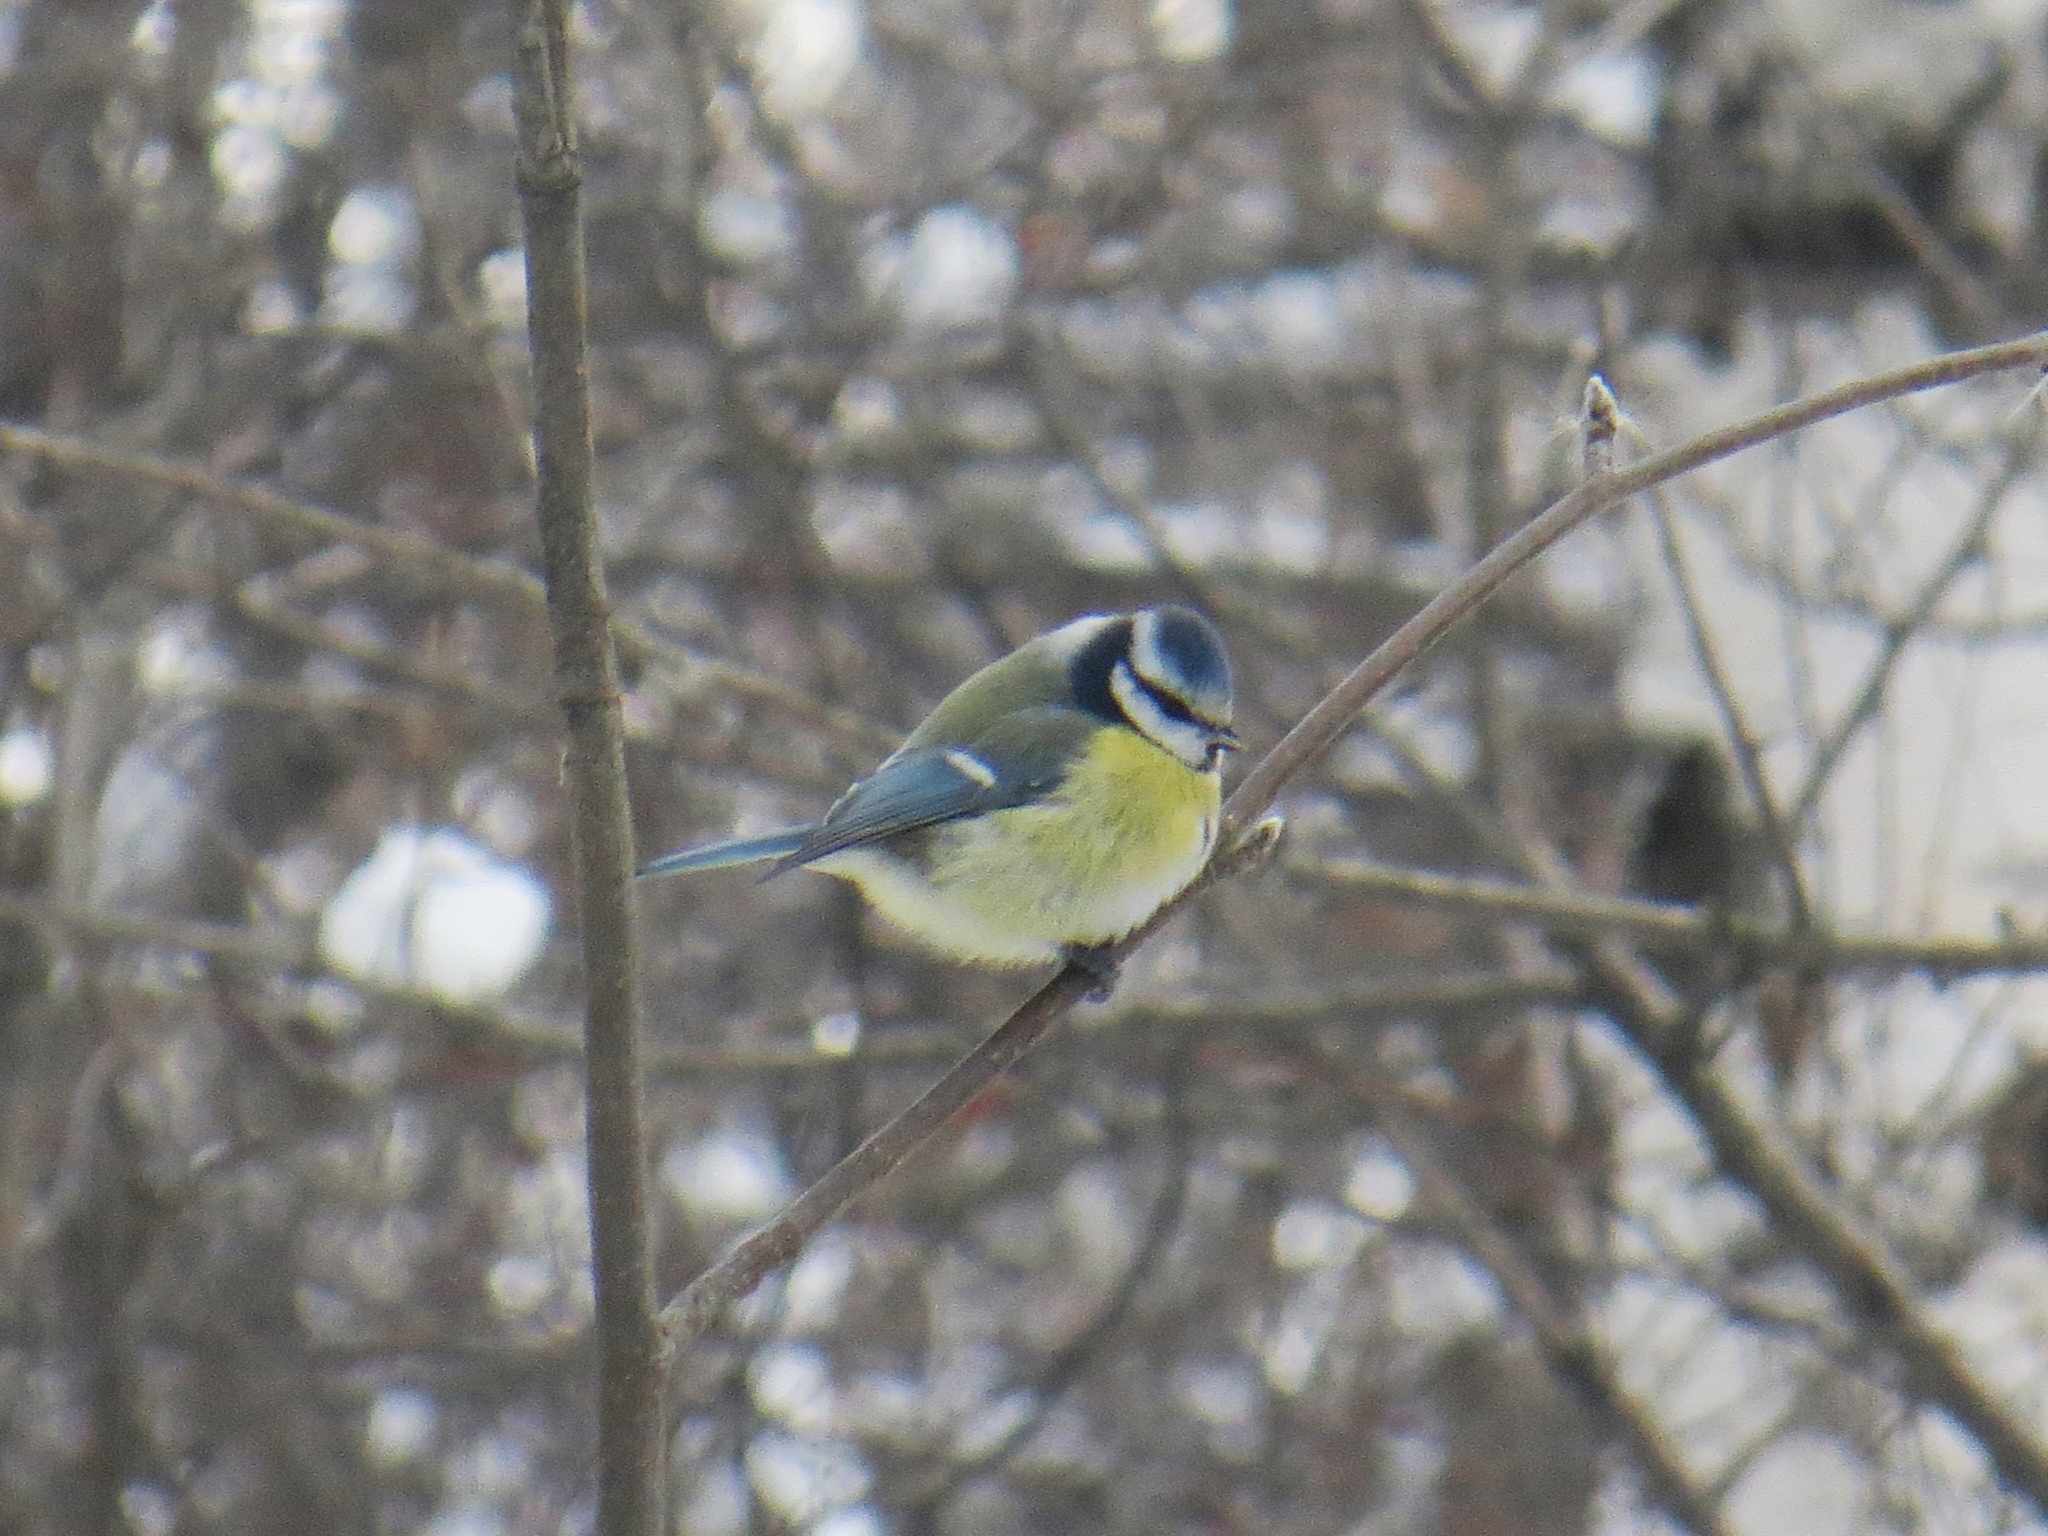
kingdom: Animalia
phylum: Chordata
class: Aves
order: Passeriformes
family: Paridae
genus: Cyanistes
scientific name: Cyanistes caeruleus
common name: Eurasian blue tit
